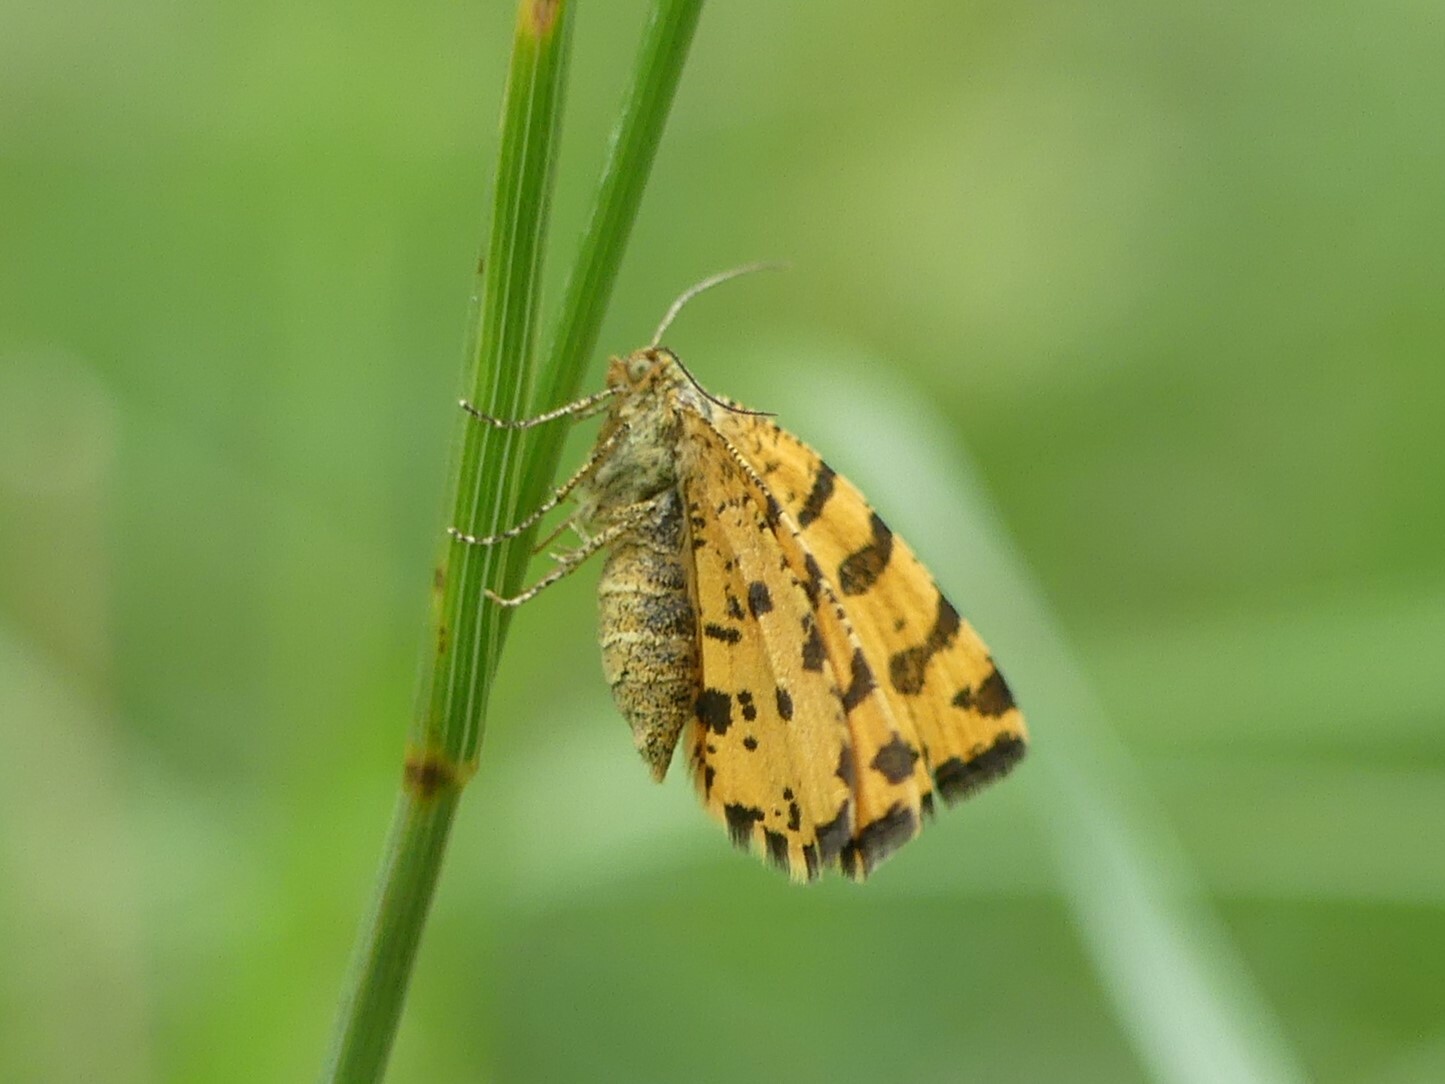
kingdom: Animalia
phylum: Arthropoda
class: Insecta
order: Lepidoptera
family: Geometridae
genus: Pseudopanthera
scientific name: Pseudopanthera macularia
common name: Speckled yellow
